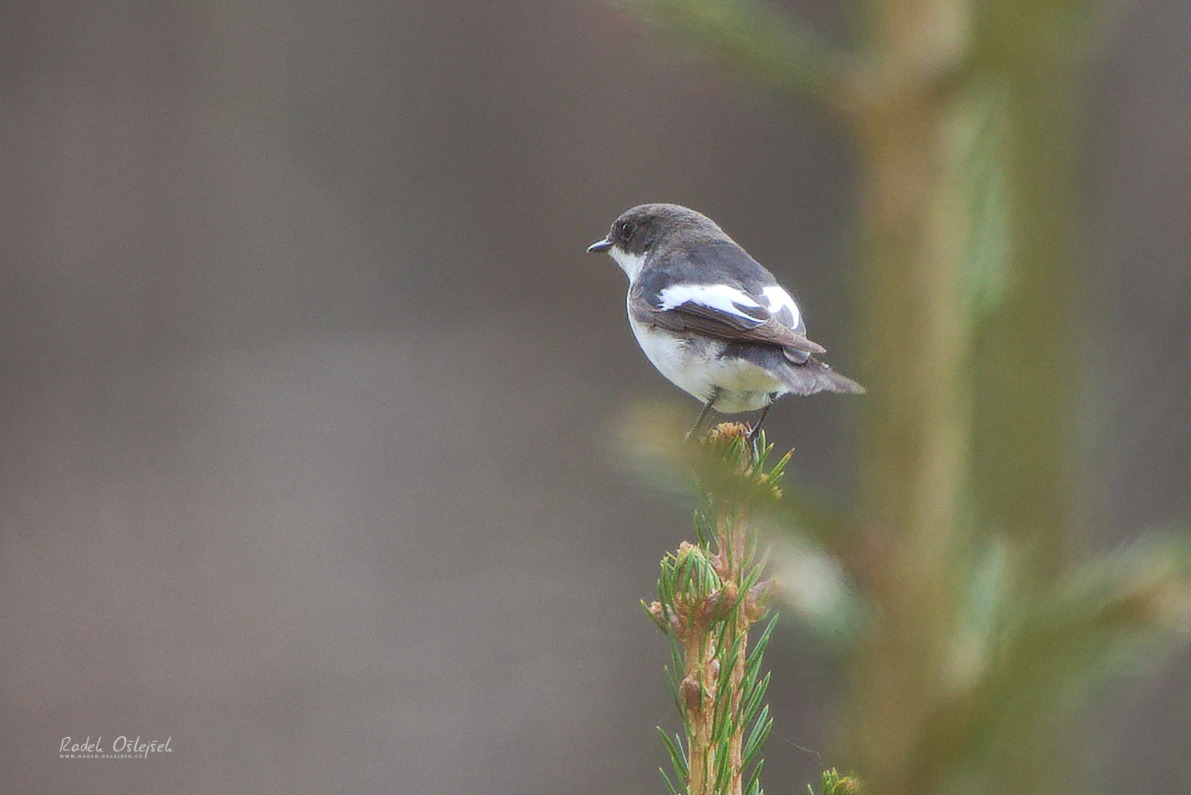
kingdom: Animalia
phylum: Chordata
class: Aves
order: Passeriformes
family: Muscicapidae
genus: Ficedula
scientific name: Ficedula hypoleuca
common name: European pied flycatcher
